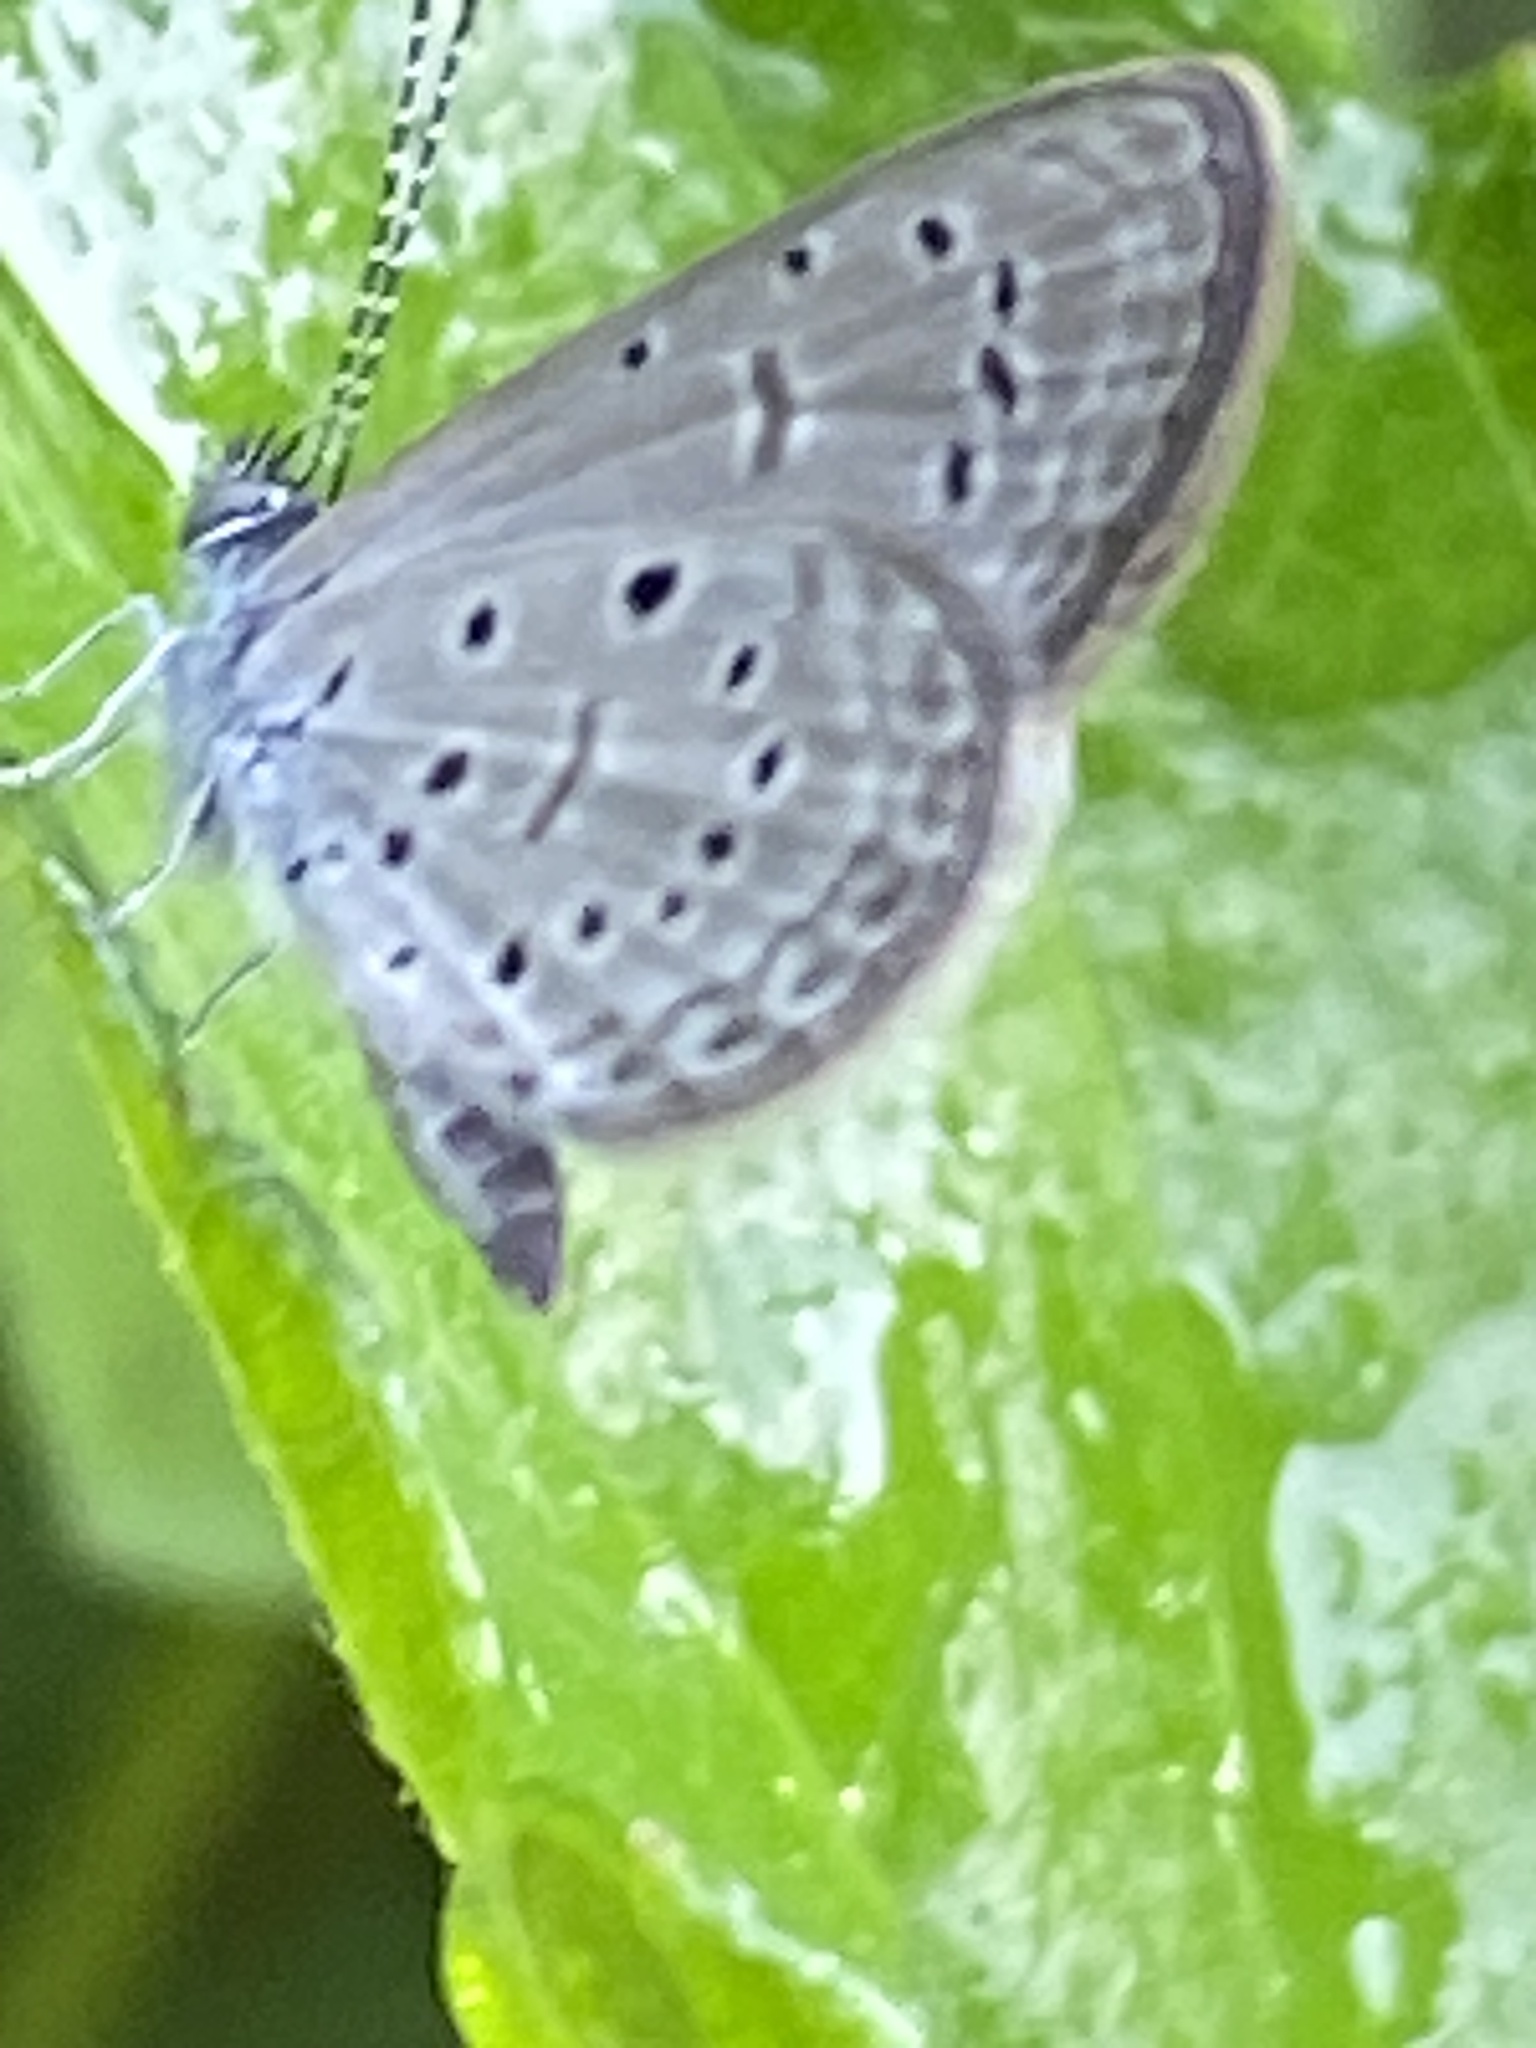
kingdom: Animalia
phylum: Arthropoda
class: Insecta
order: Lepidoptera
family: Lycaenidae
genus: Zizula
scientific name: Zizula hylax
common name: Gaika blue
